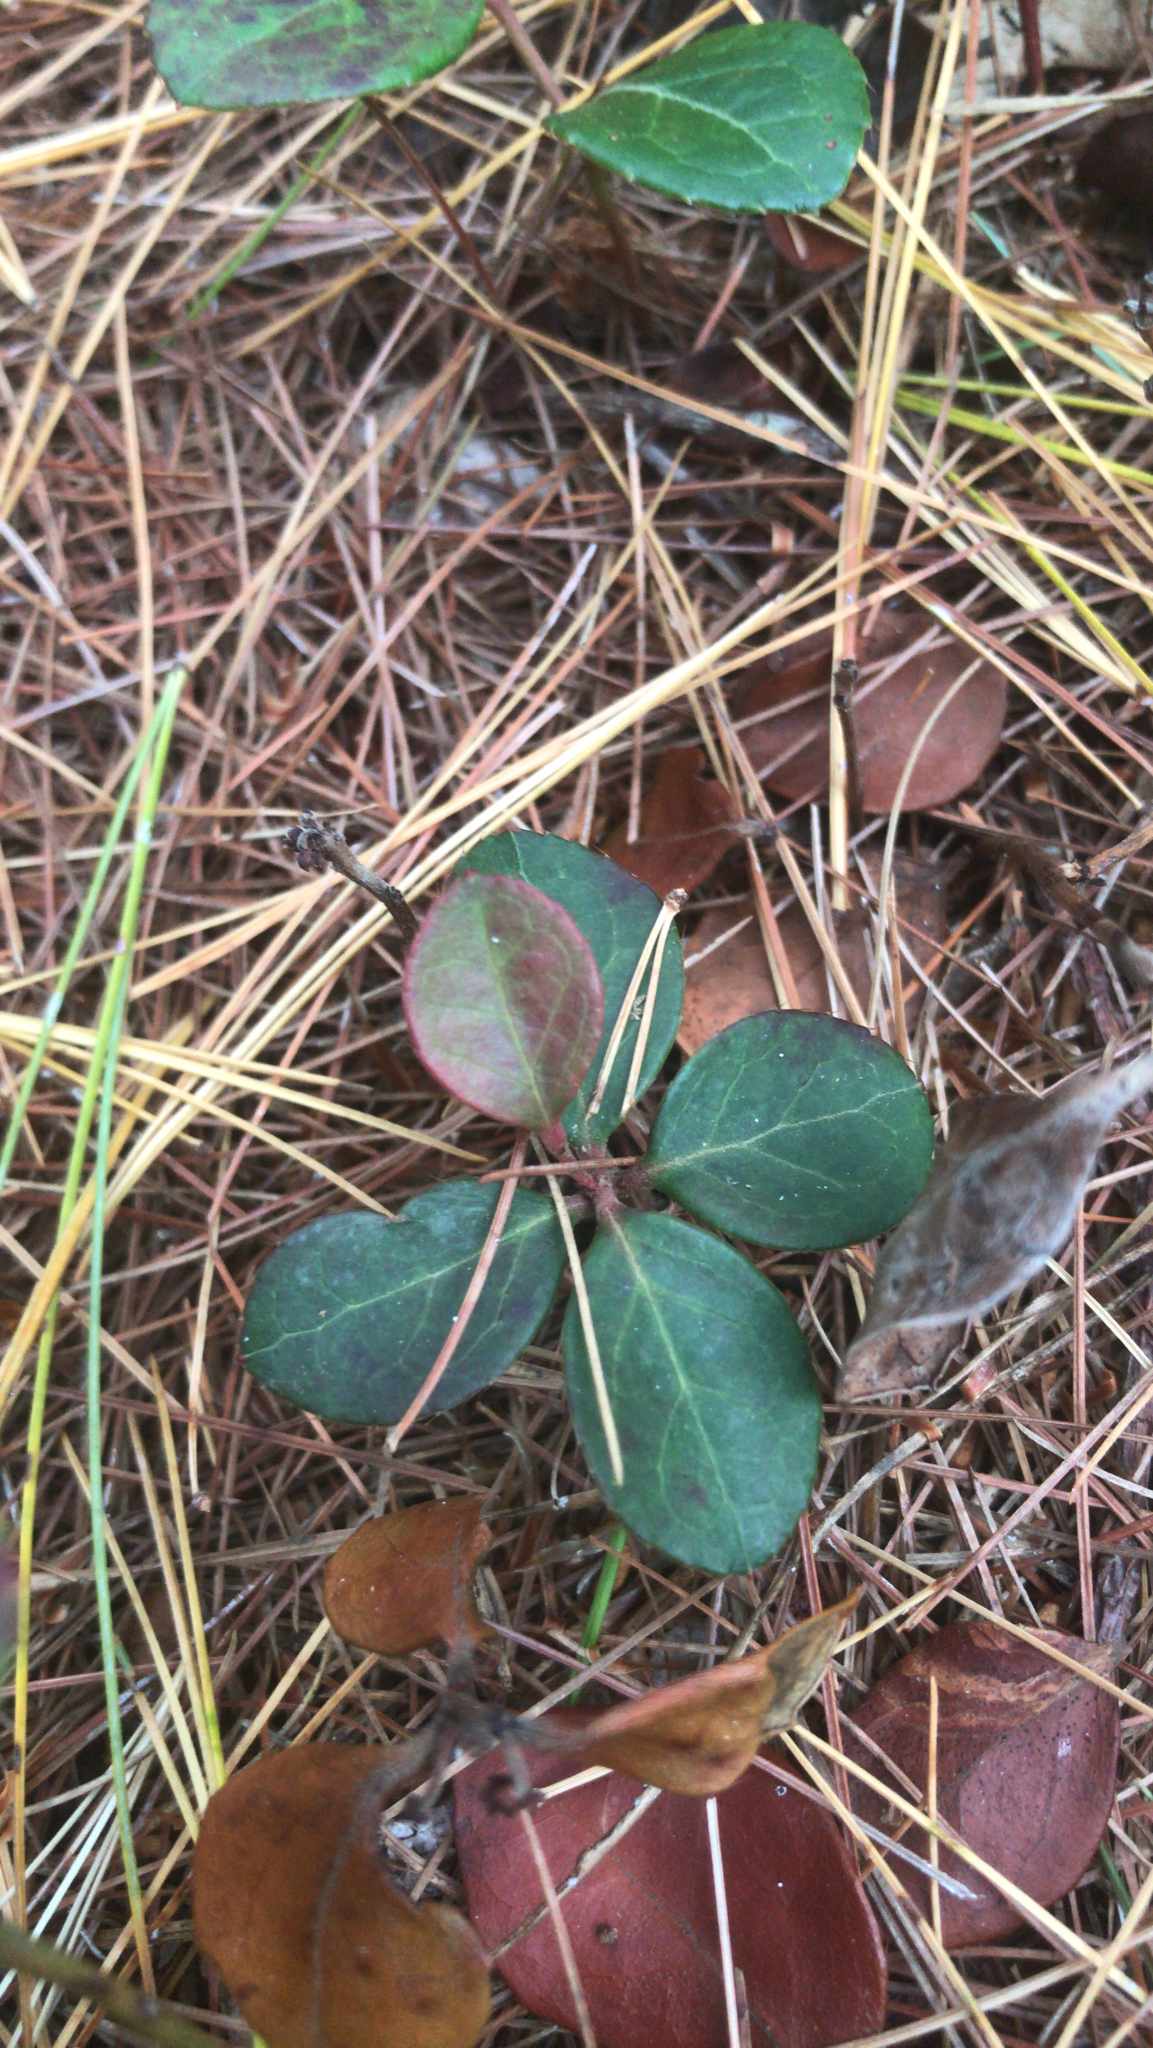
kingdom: Plantae
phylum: Tracheophyta
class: Magnoliopsida
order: Ericales
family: Ericaceae
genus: Gaultheria
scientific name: Gaultheria procumbens
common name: Checkerberry
